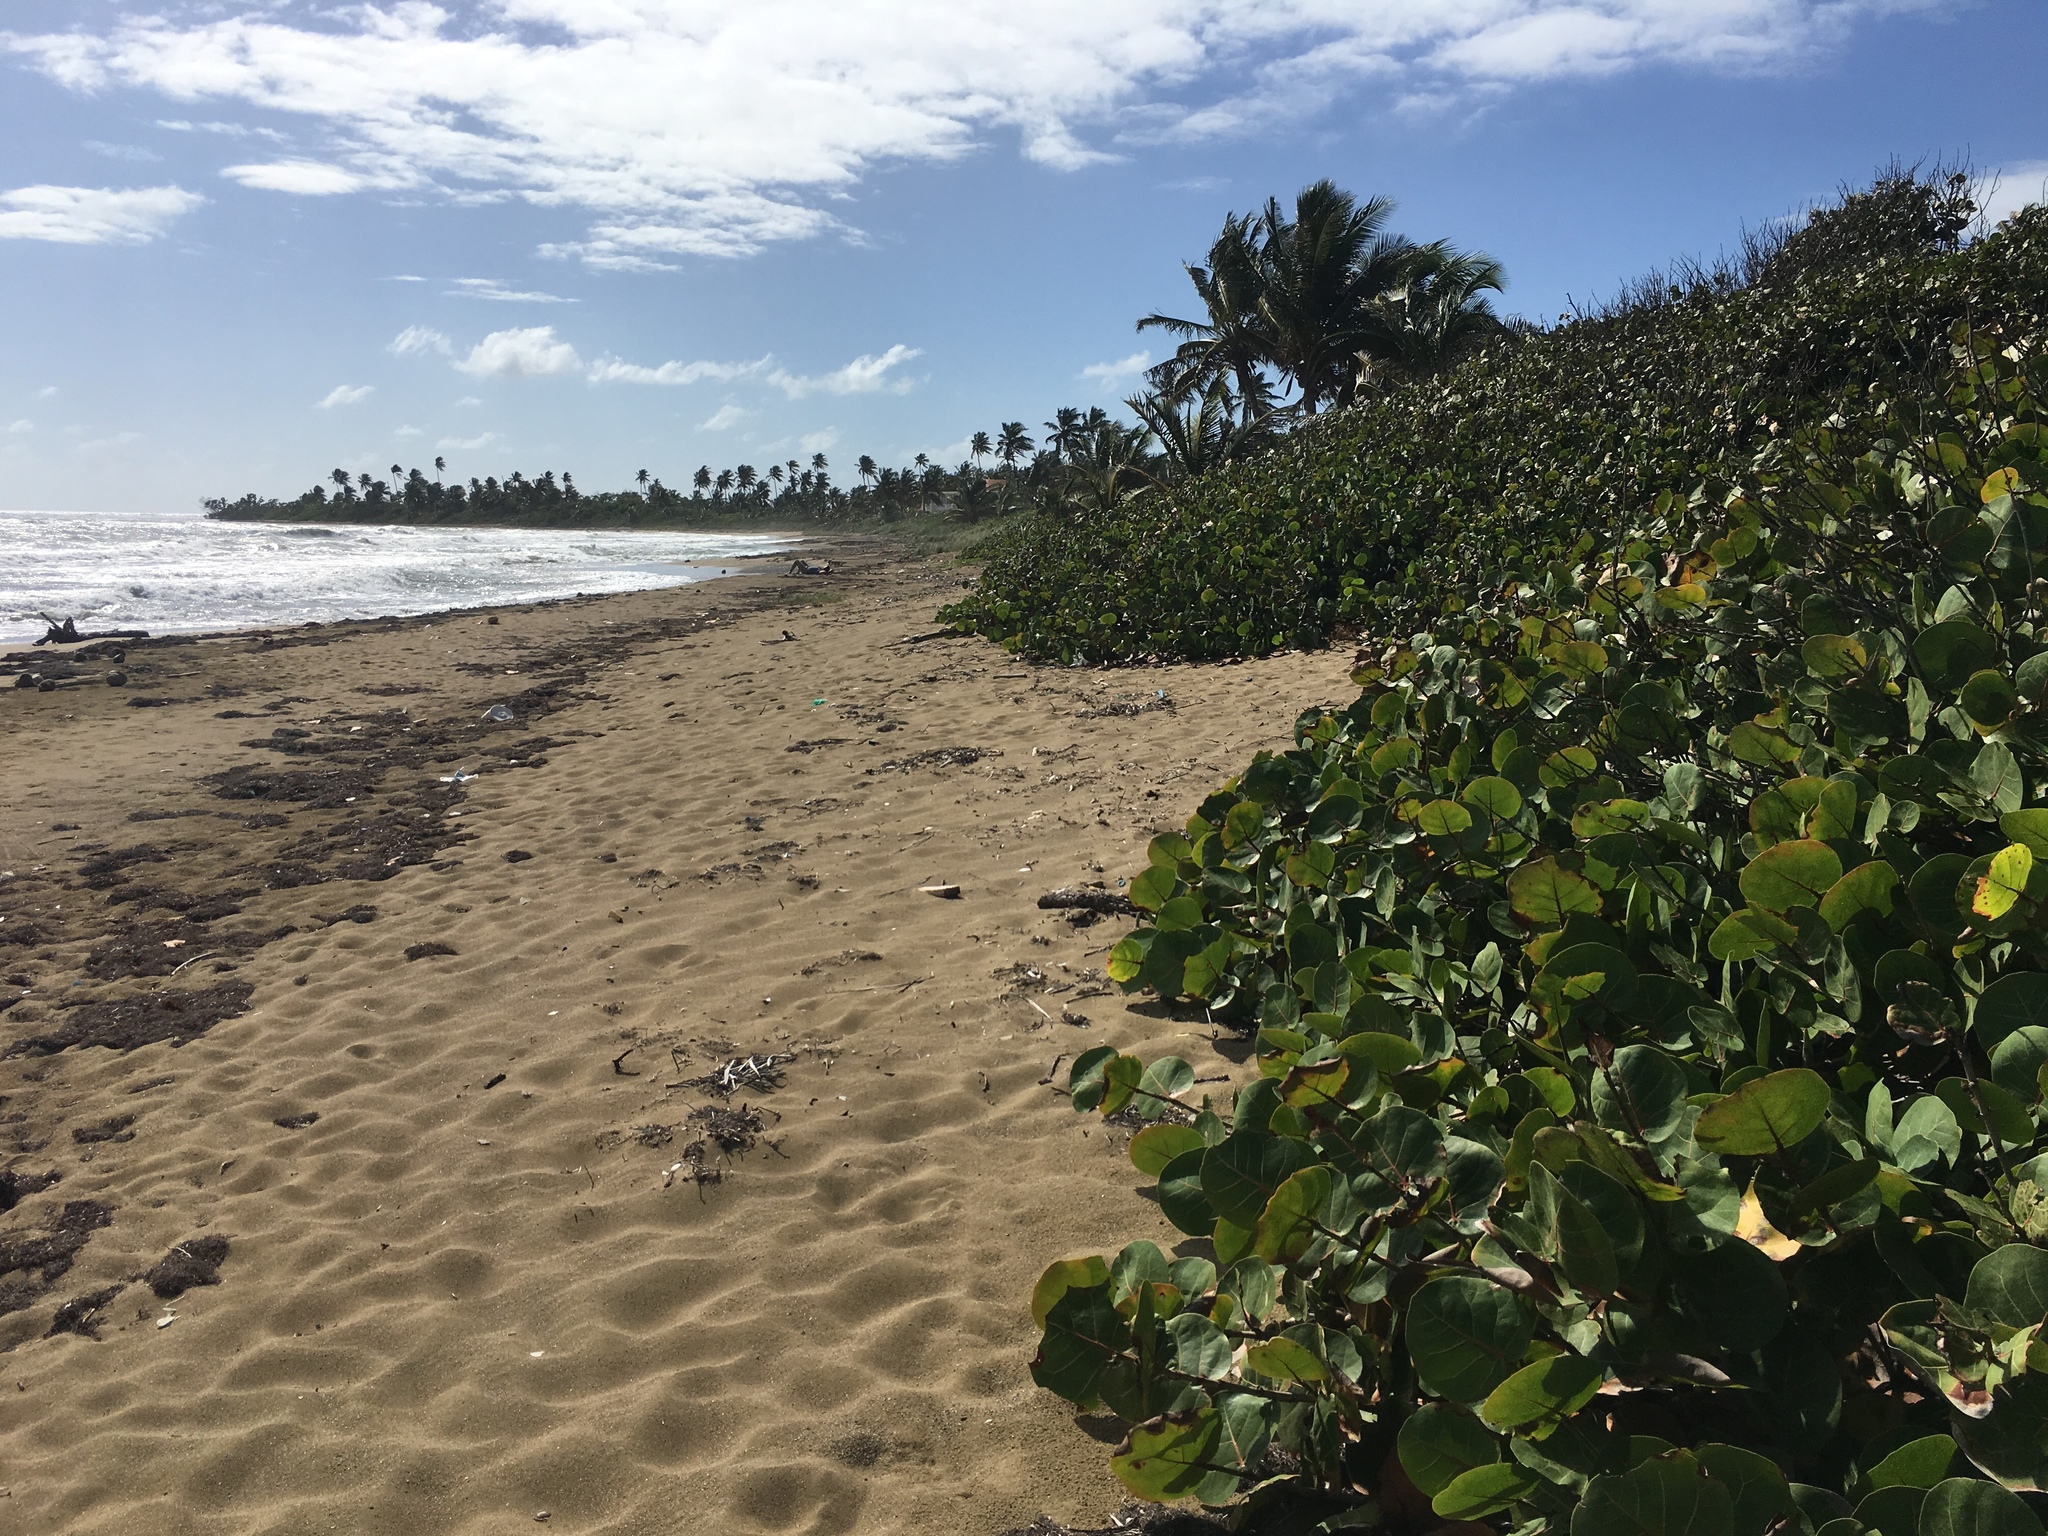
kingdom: Plantae
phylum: Tracheophyta
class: Magnoliopsida
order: Caryophyllales
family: Polygonaceae
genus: Coccoloba
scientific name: Coccoloba uvifera
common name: Seagrape
